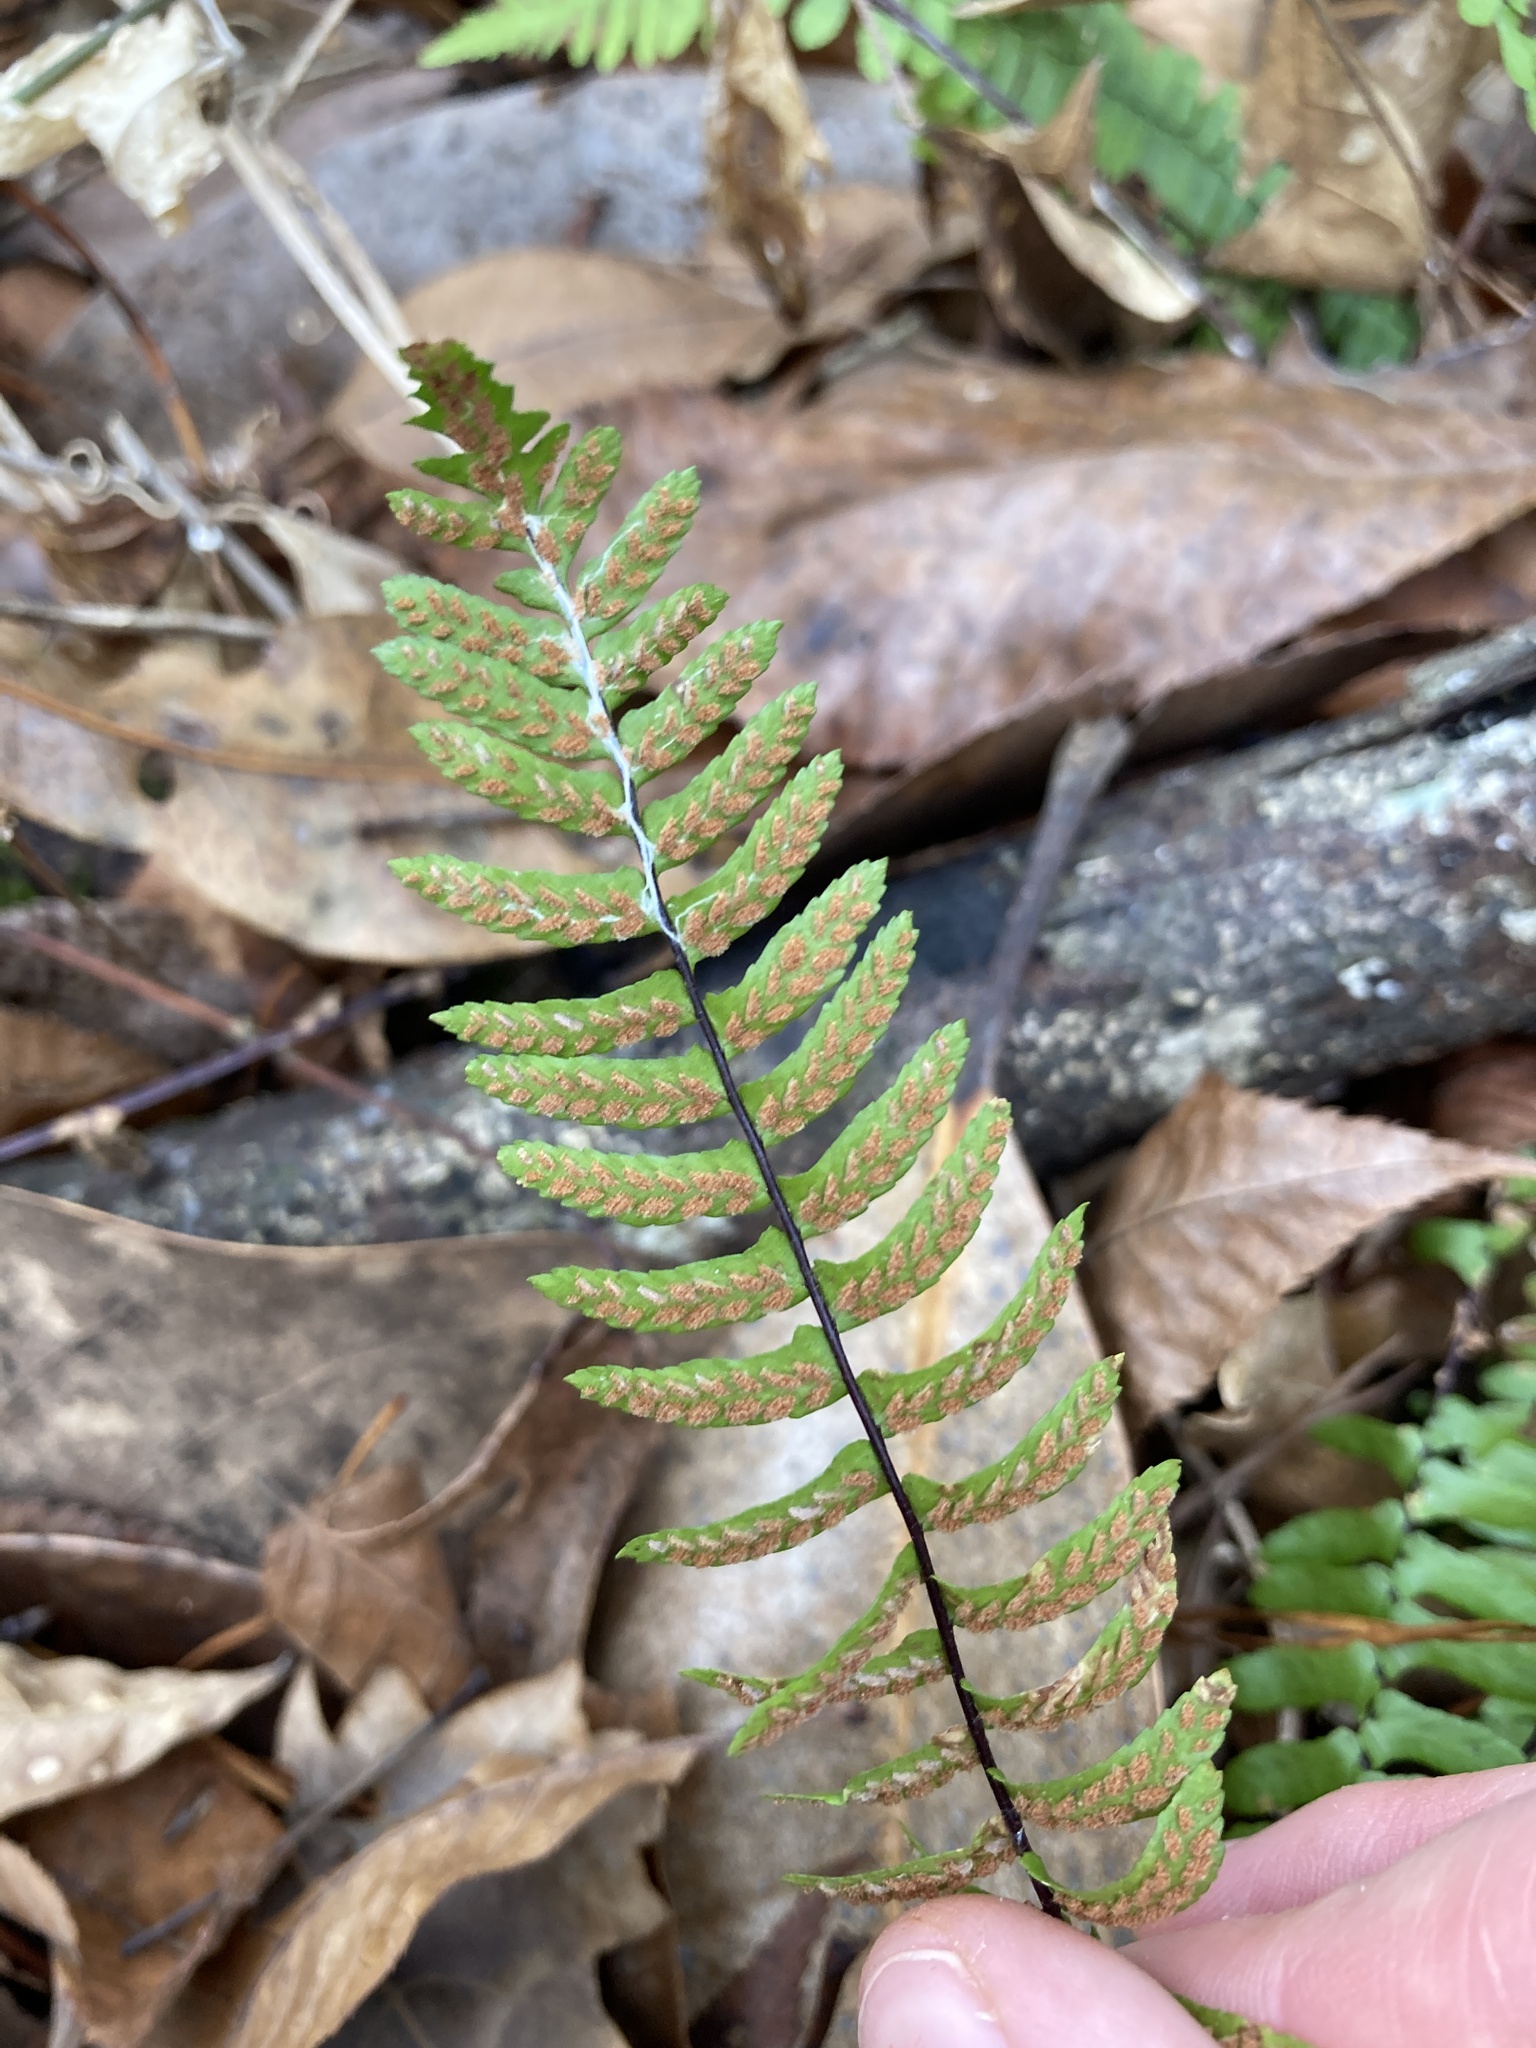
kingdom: Plantae
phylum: Tracheophyta
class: Polypodiopsida
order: Polypodiales
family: Aspleniaceae
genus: Asplenium
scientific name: Asplenium platyneuron
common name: Ebony spleenwort
